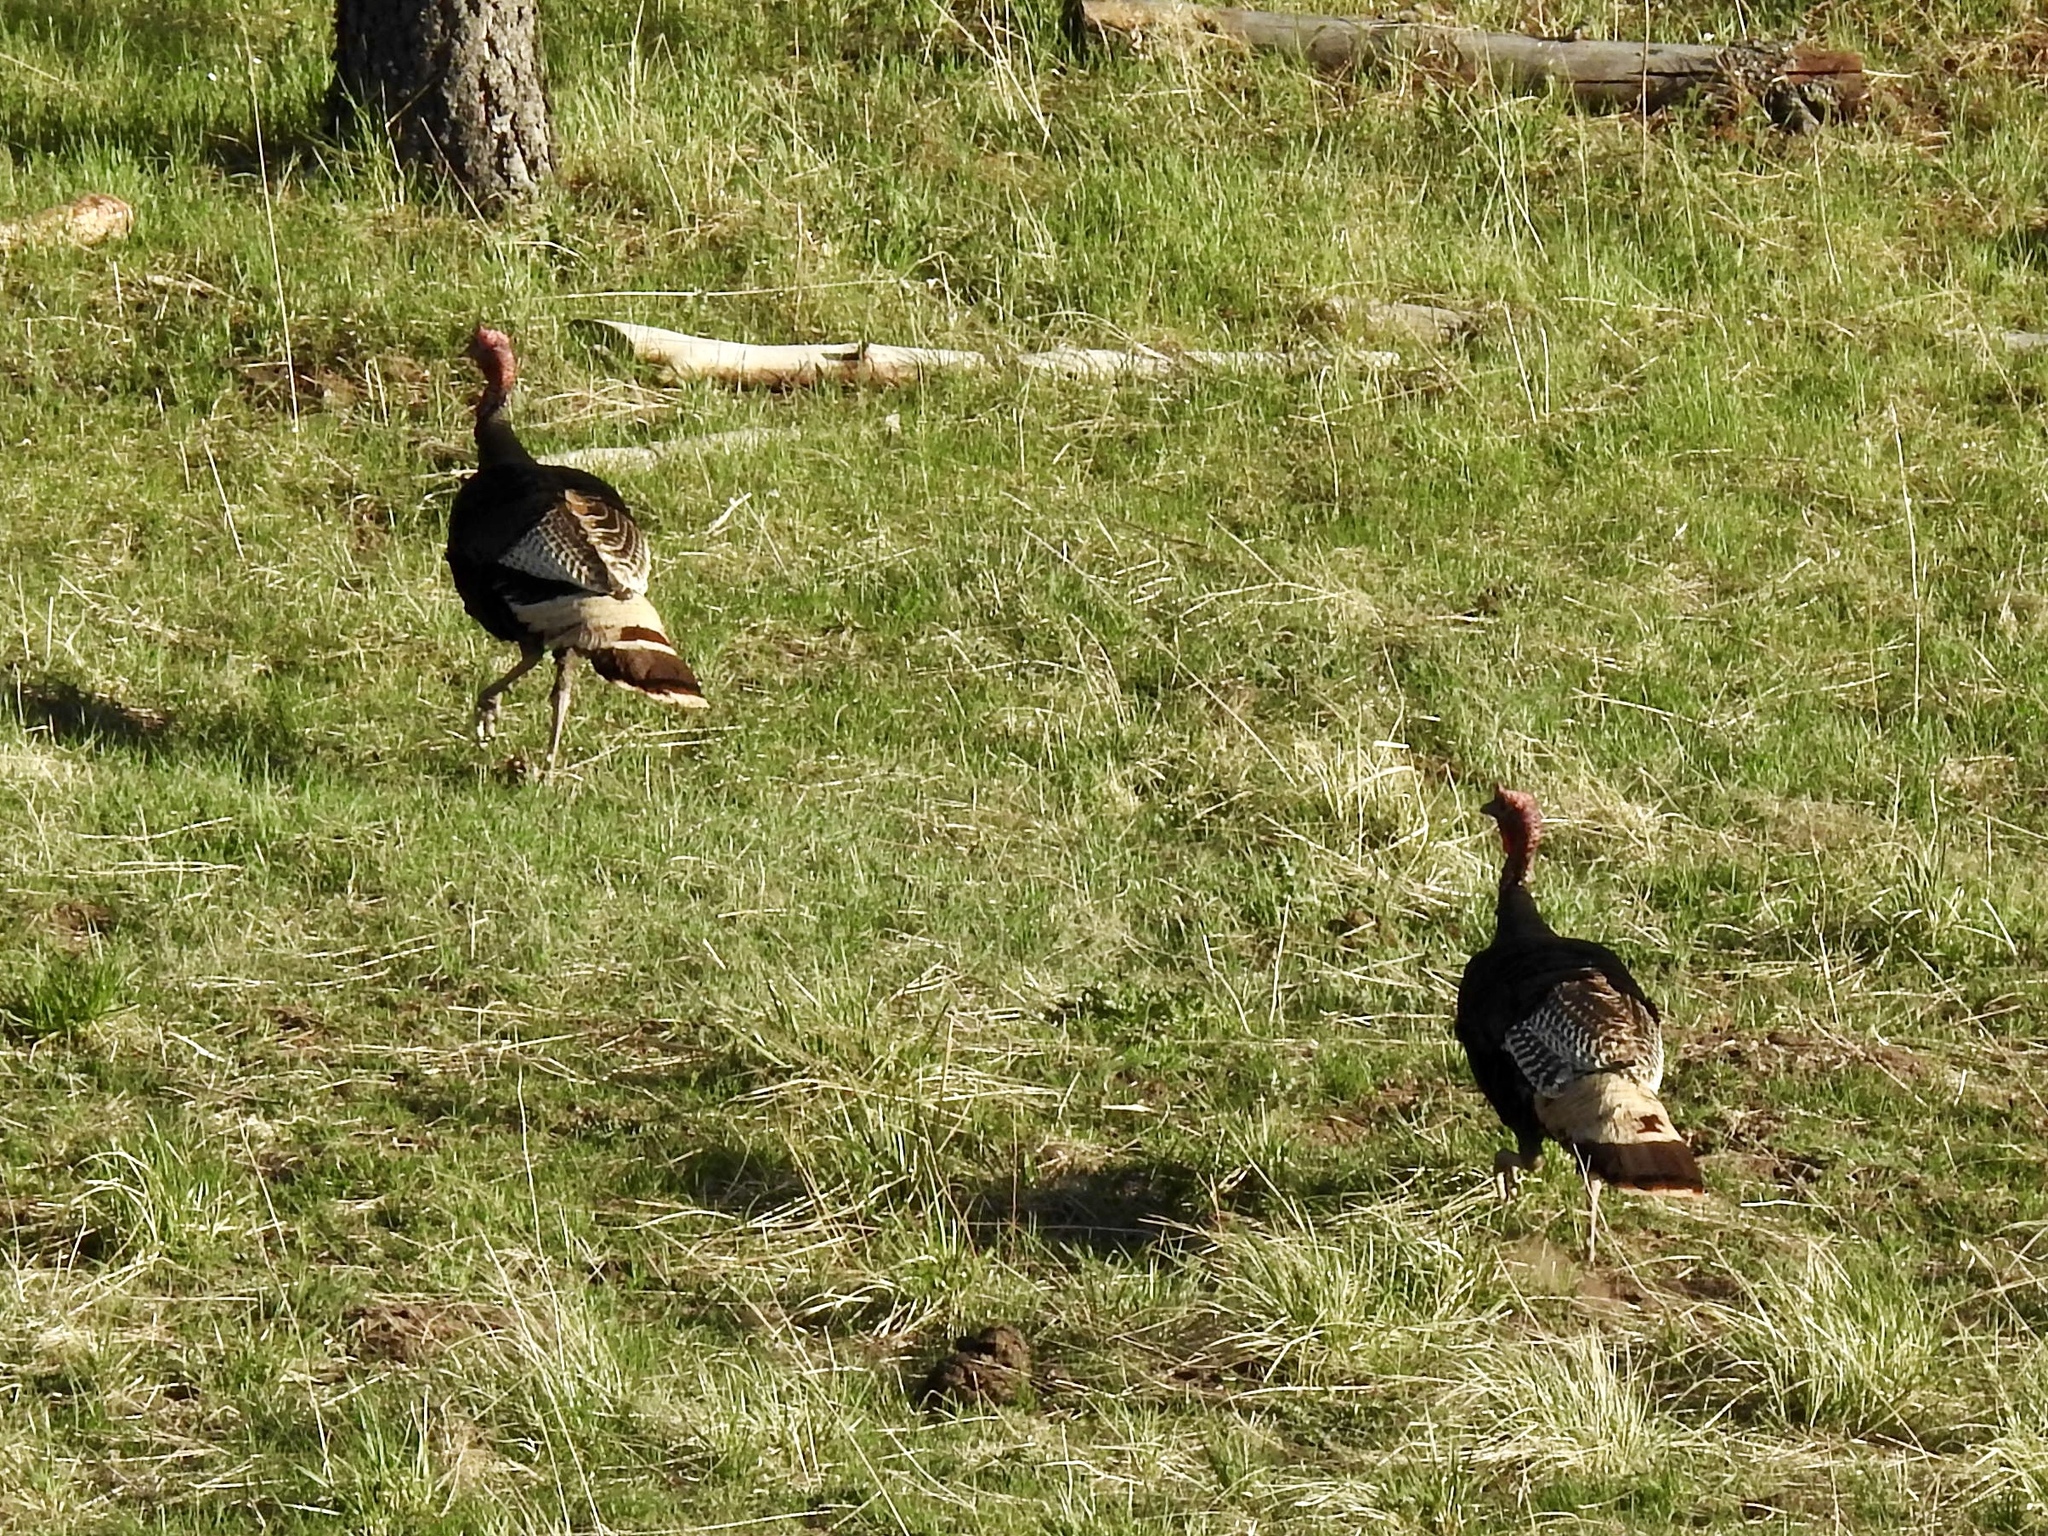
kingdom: Animalia
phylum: Chordata
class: Aves
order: Galliformes
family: Phasianidae
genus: Meleagris
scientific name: Meleagris gallopavo
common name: Wild turkey
